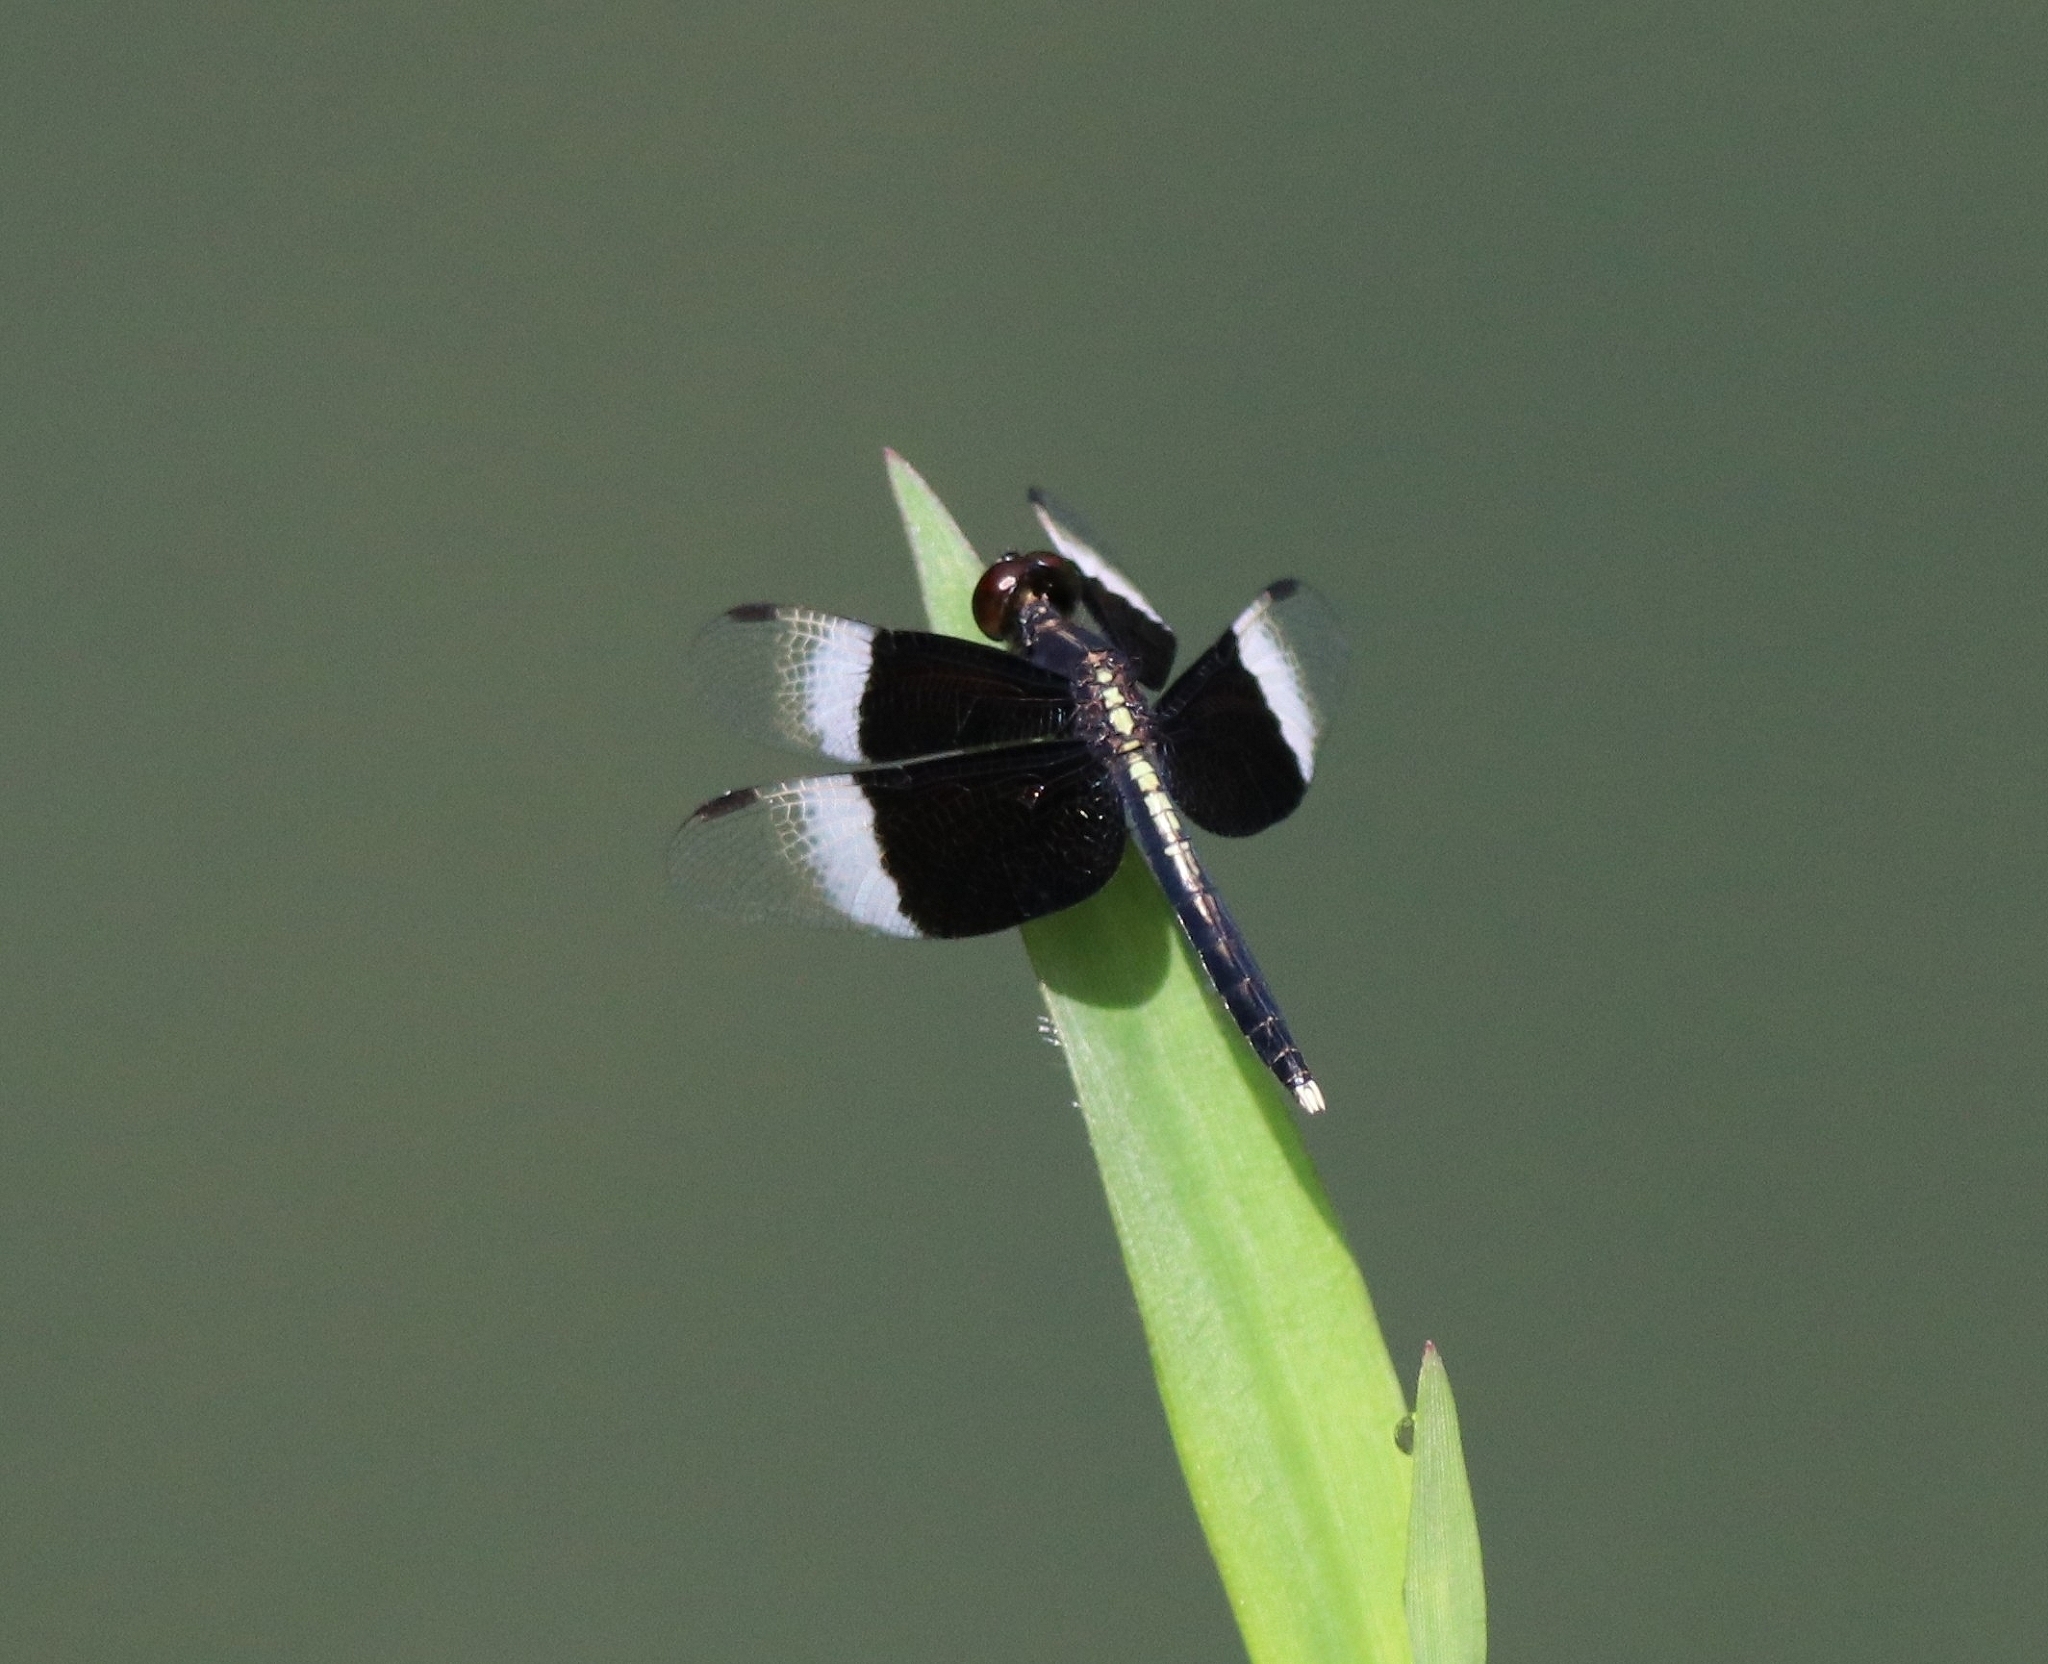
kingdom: Animalia
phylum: Arthropoda
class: Insecta
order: Odonata
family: Libellulidae
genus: Neurothemis
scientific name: Neurothemis tullia
